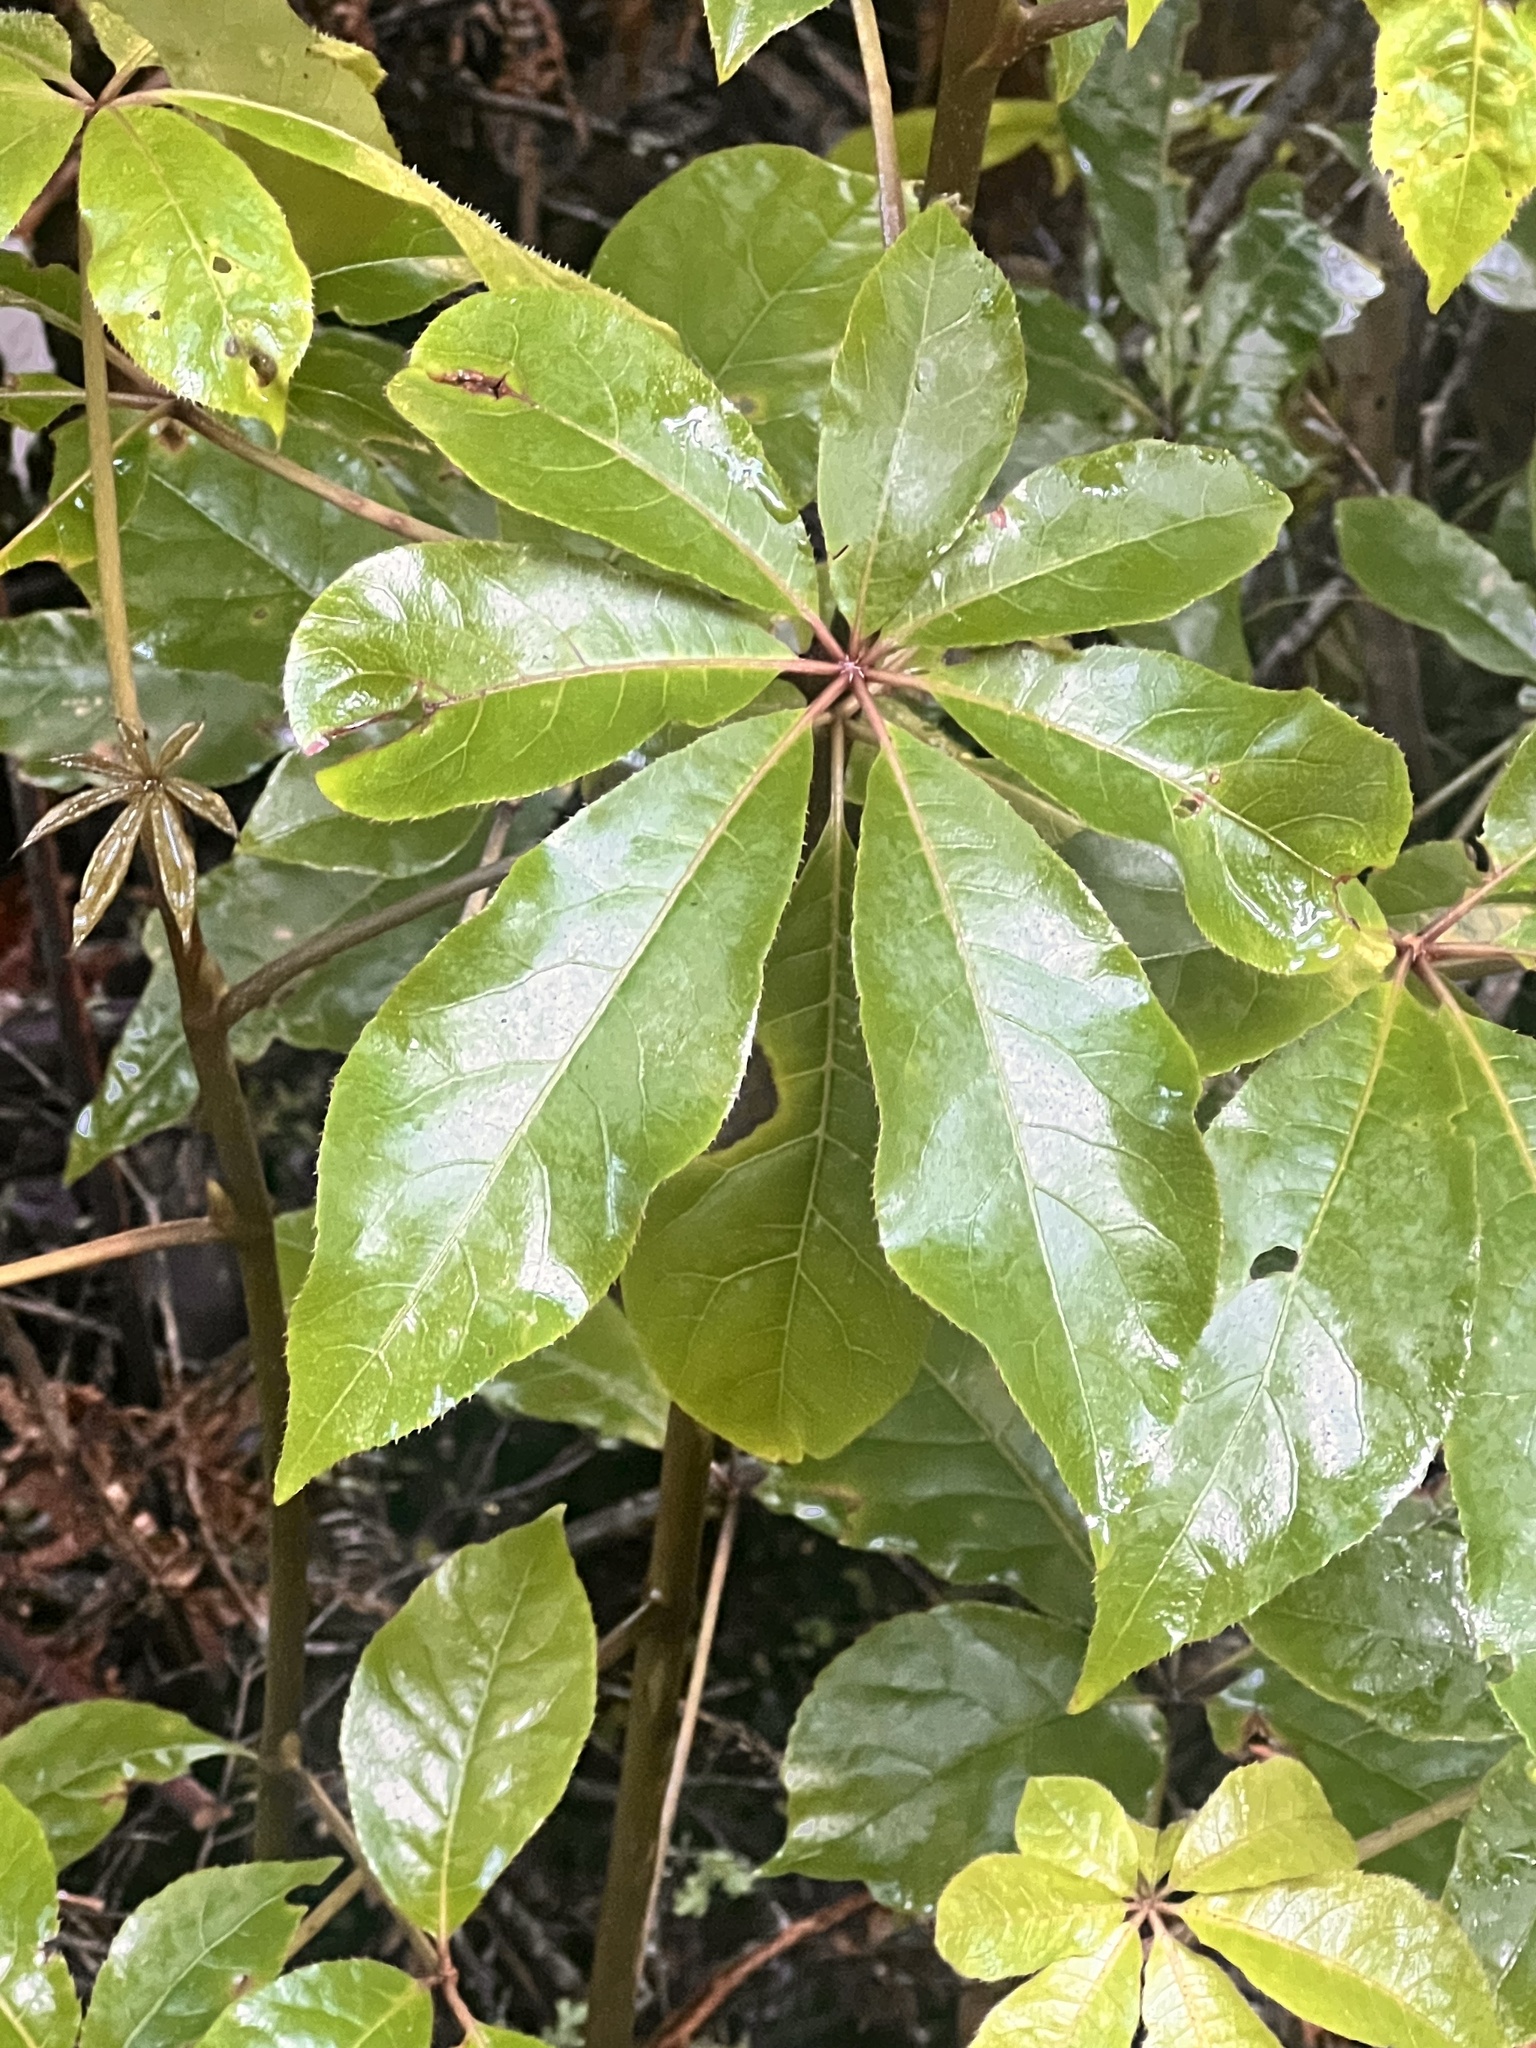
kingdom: Plantae
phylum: Tracheophyta
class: Magnoliopsida
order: Apiales
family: Araliaceae
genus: Schefflera
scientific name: Schefflera digitata
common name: Pate
